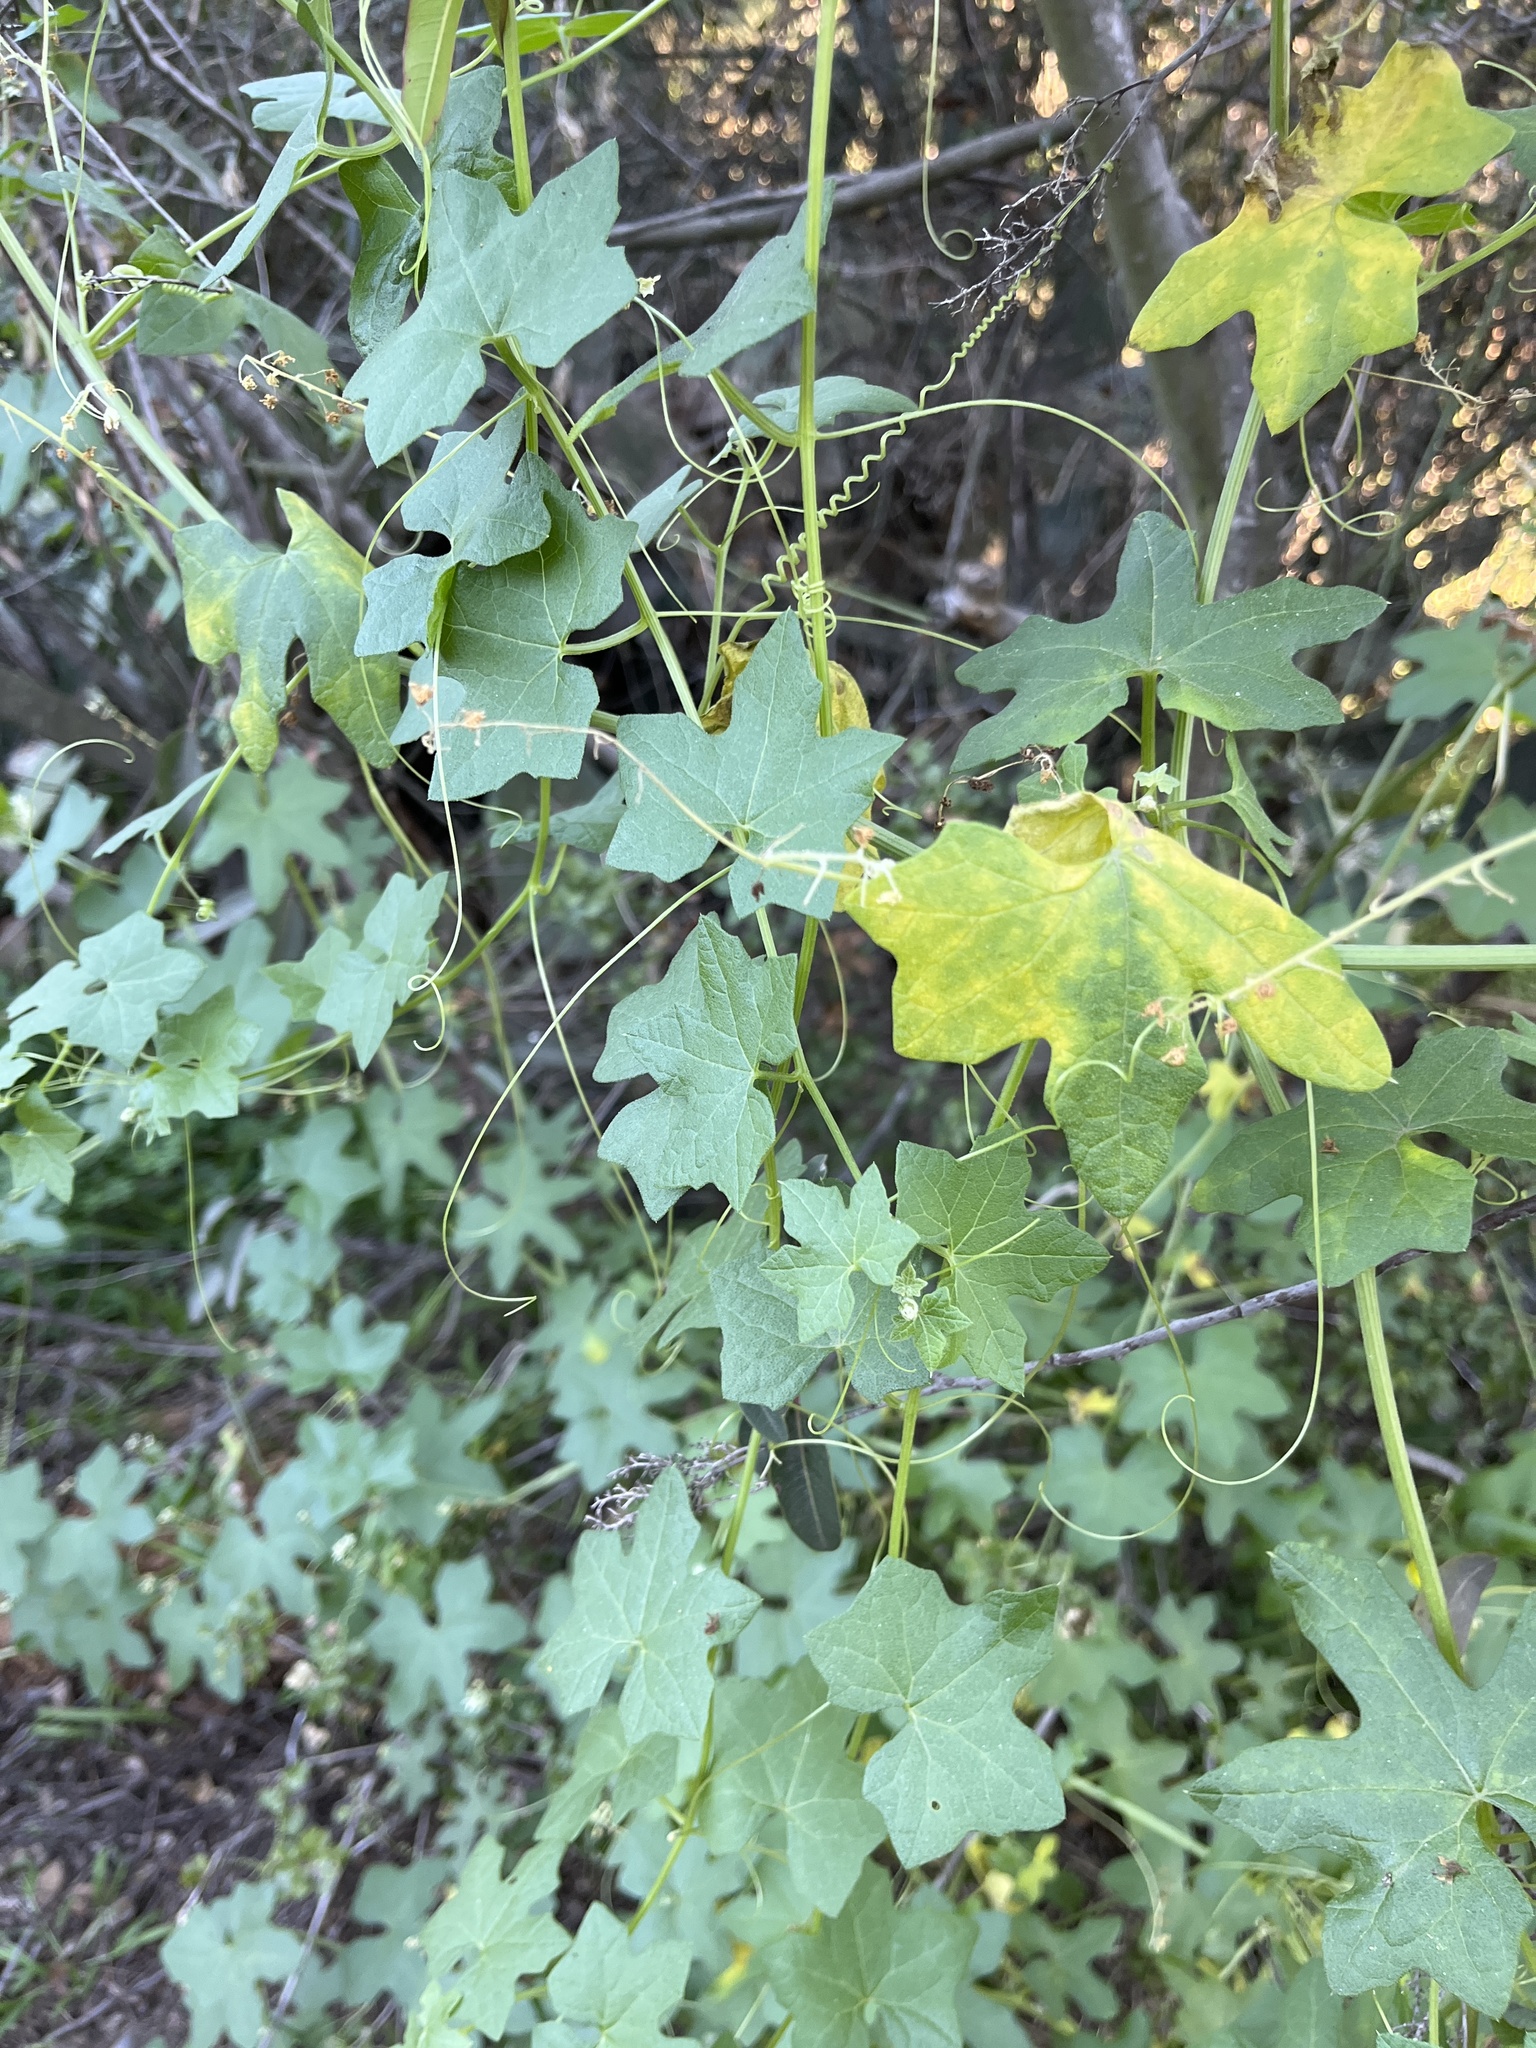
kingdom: Plantae
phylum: Tracheophyta
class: Magnoliopsida
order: Cucurbitales
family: Cucurbitaceae
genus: Marah
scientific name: Marah macrocarpa
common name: Cucamonga manroot
